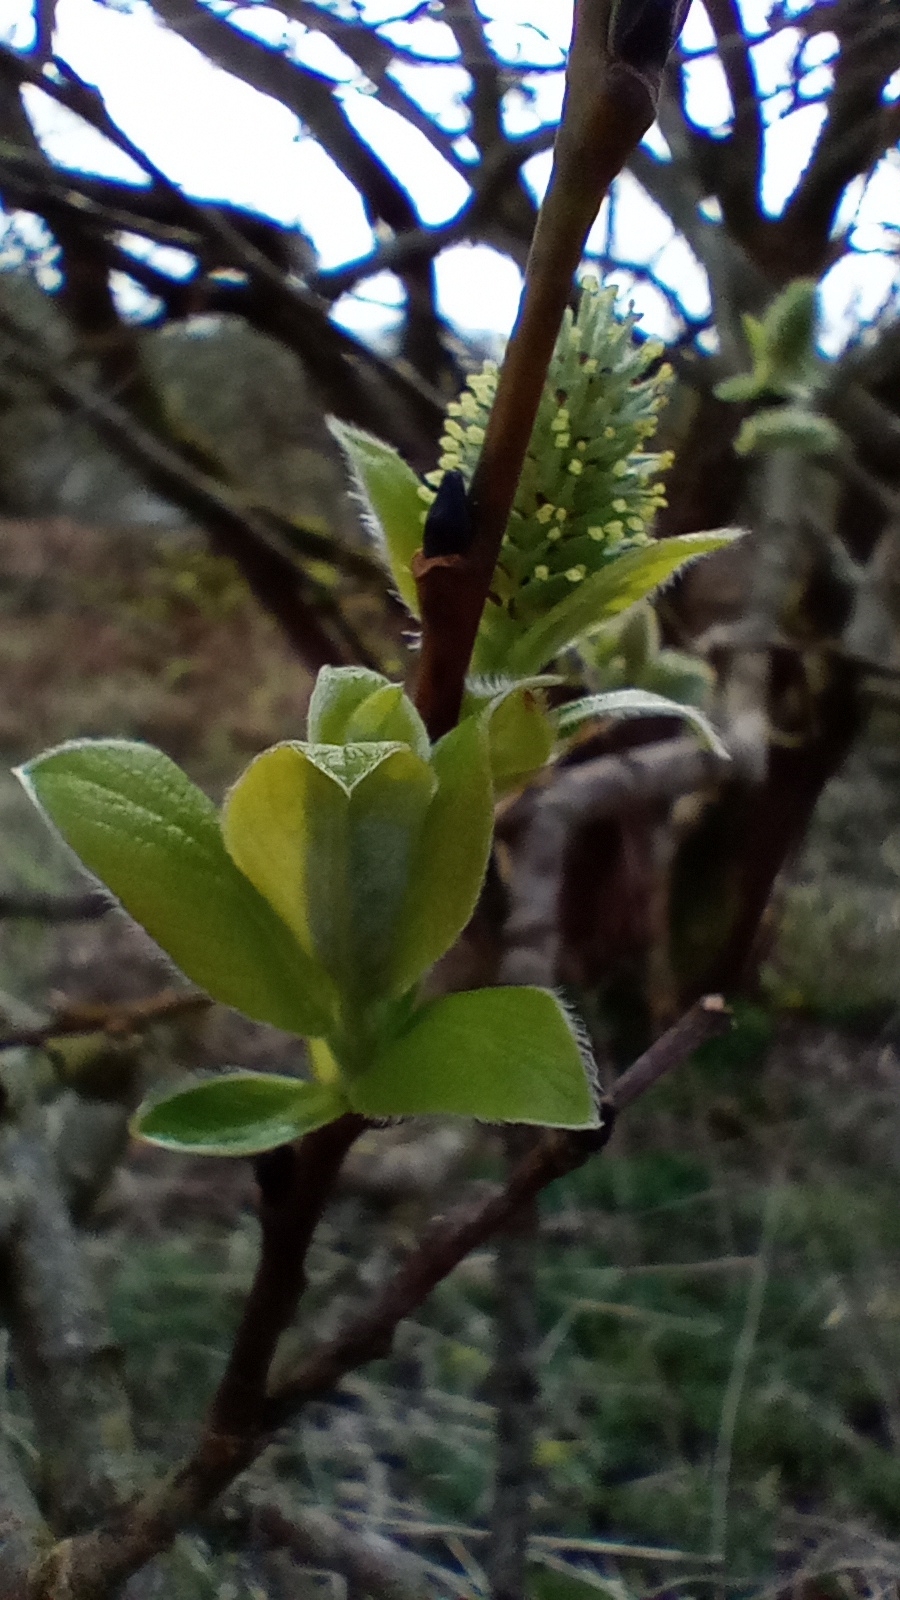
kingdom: Plantae
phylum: Tracheophyta
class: Magnoliopsida
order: Malpighiales
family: Salicaceae
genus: Salix
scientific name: Salix caprea
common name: Goat willow
